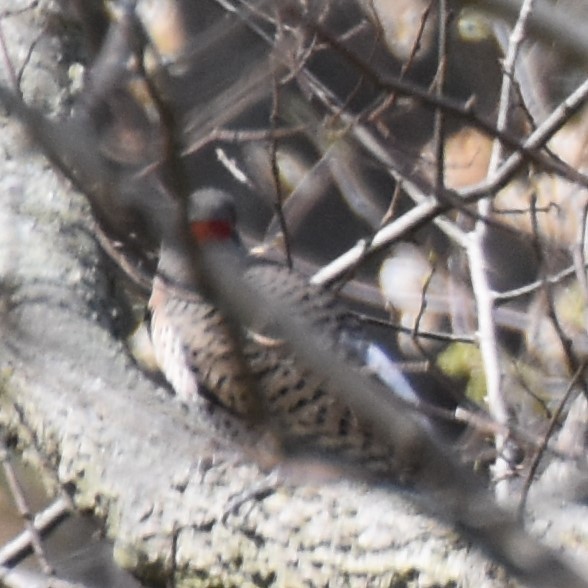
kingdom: Animalia
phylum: Chordata
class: Aves
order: Piciformes
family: Picidae
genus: Colaptes
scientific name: Colaptes auratus
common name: Northern flicker
